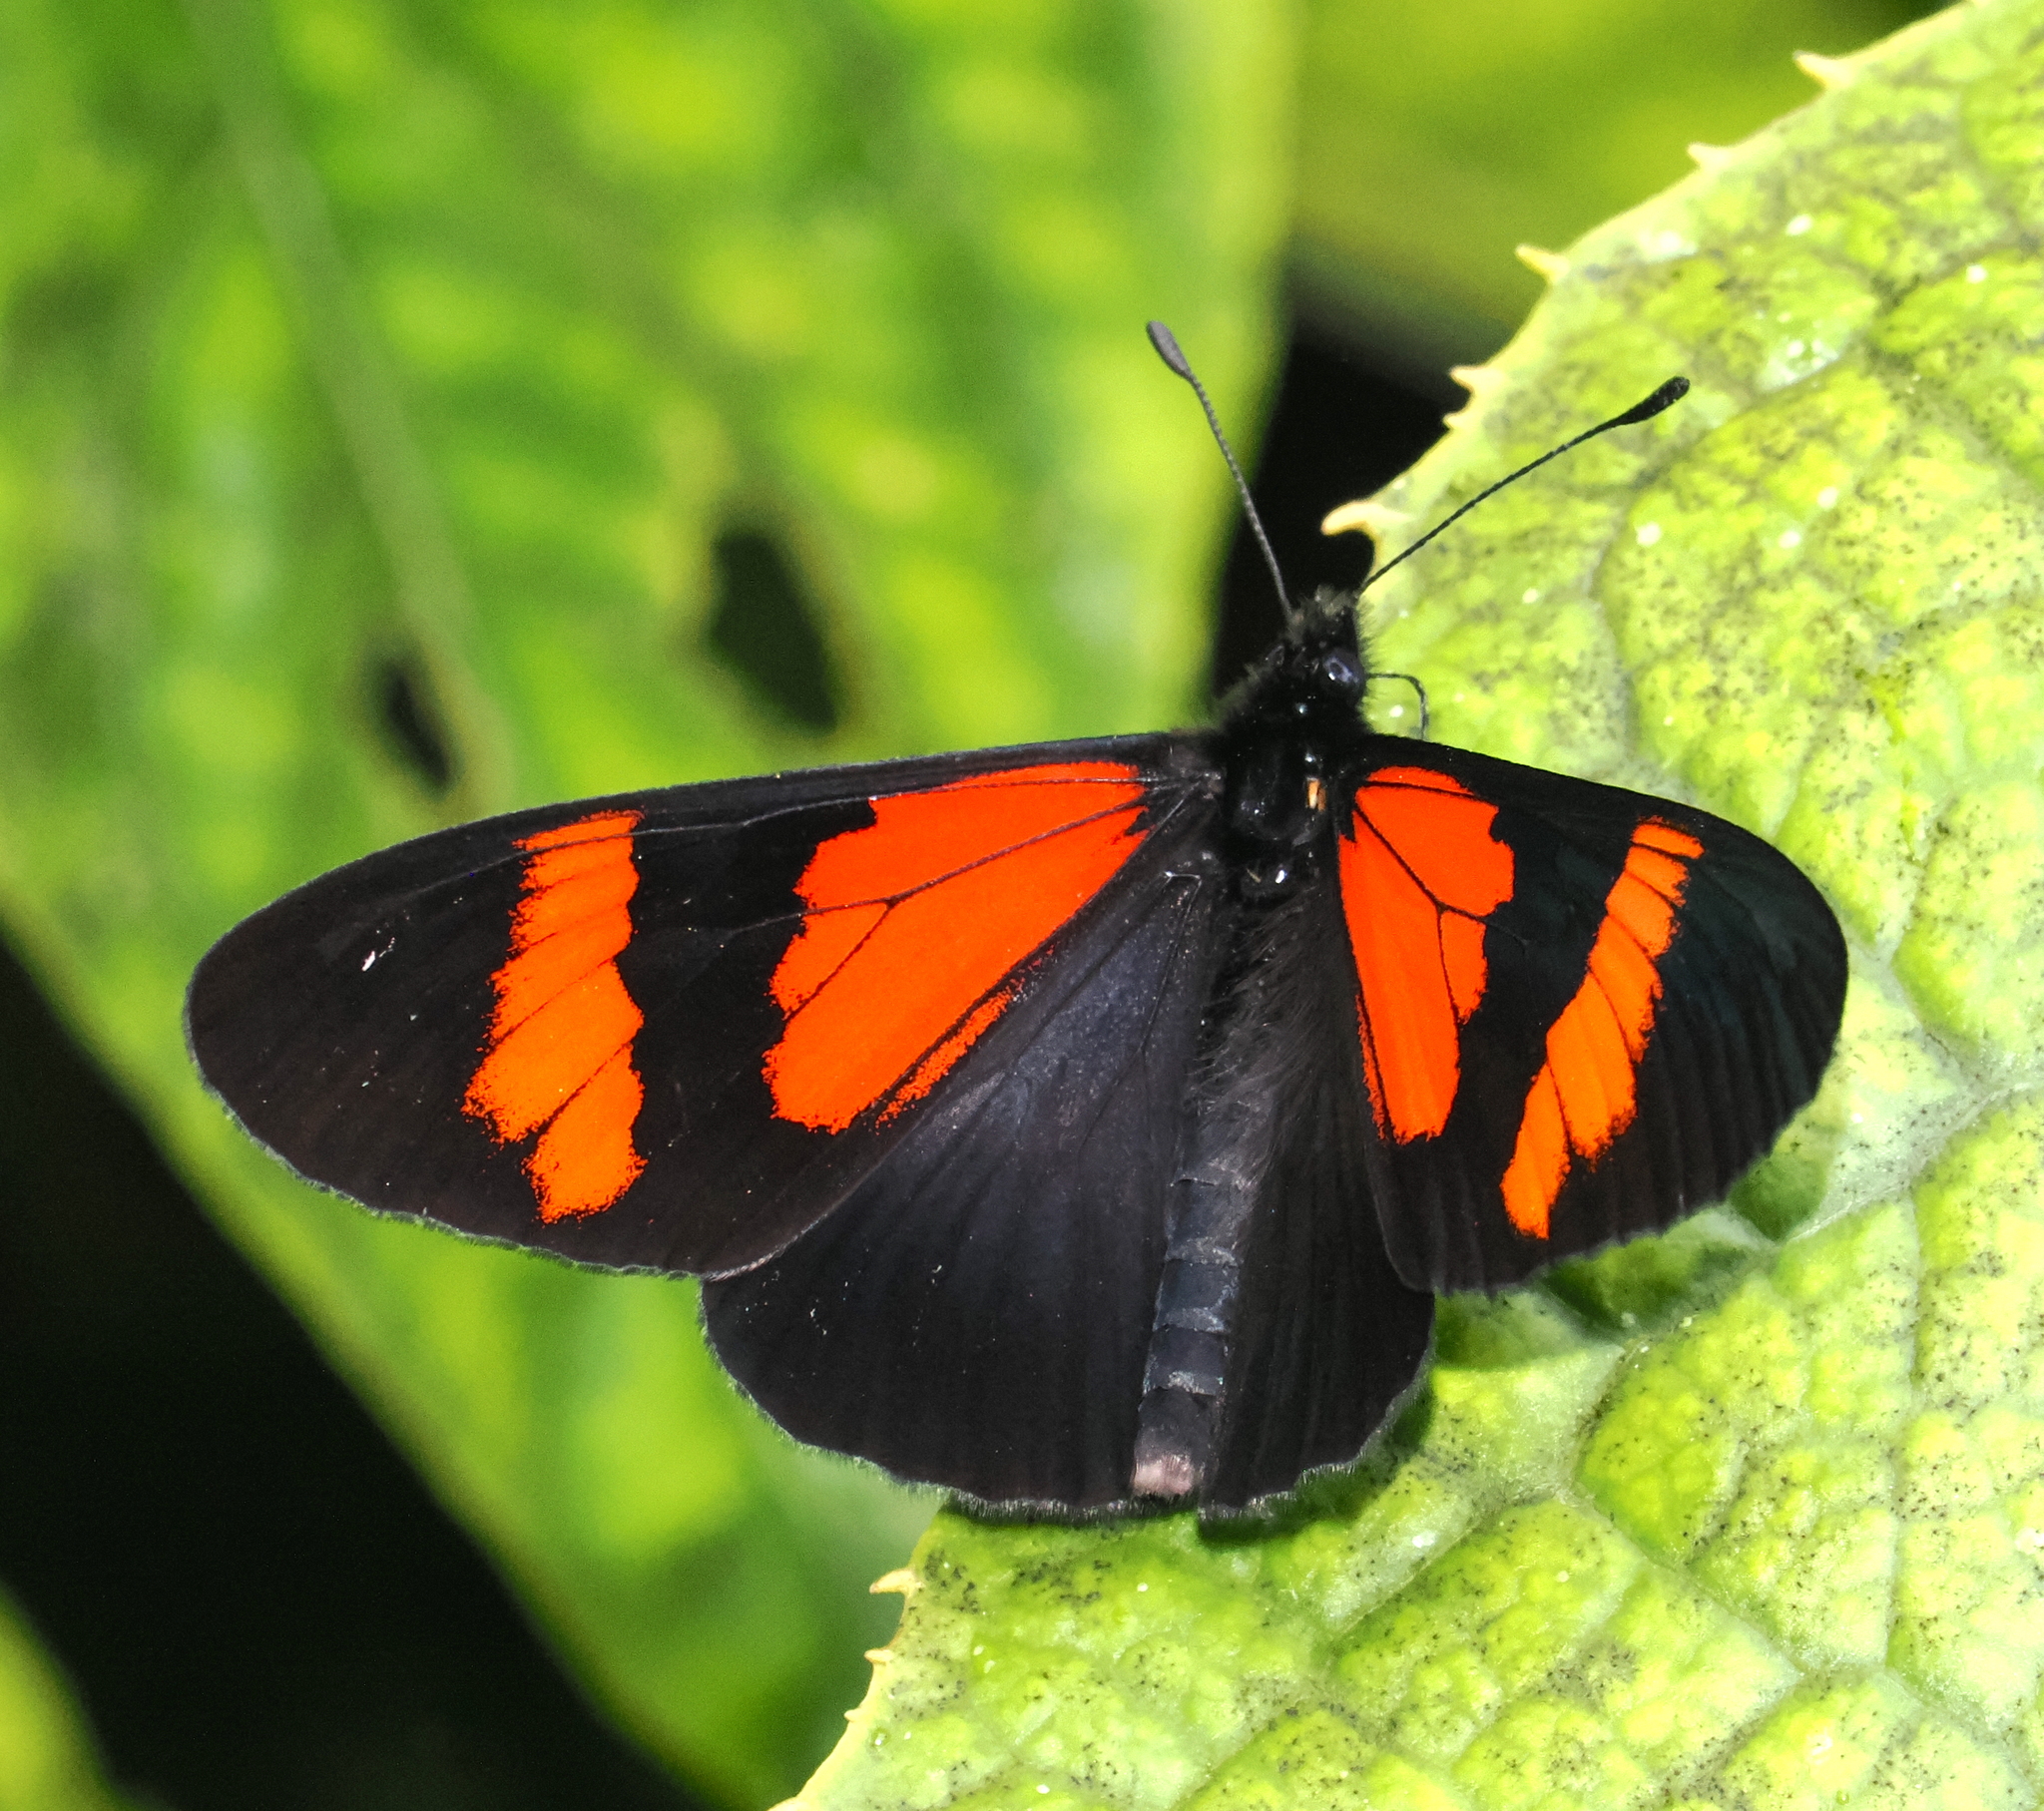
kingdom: Animalia
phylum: Arthropoda
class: Insecta
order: Lepidoptera
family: Nymphalidae
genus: Acraea
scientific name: Acraea Altinote dicaeus
